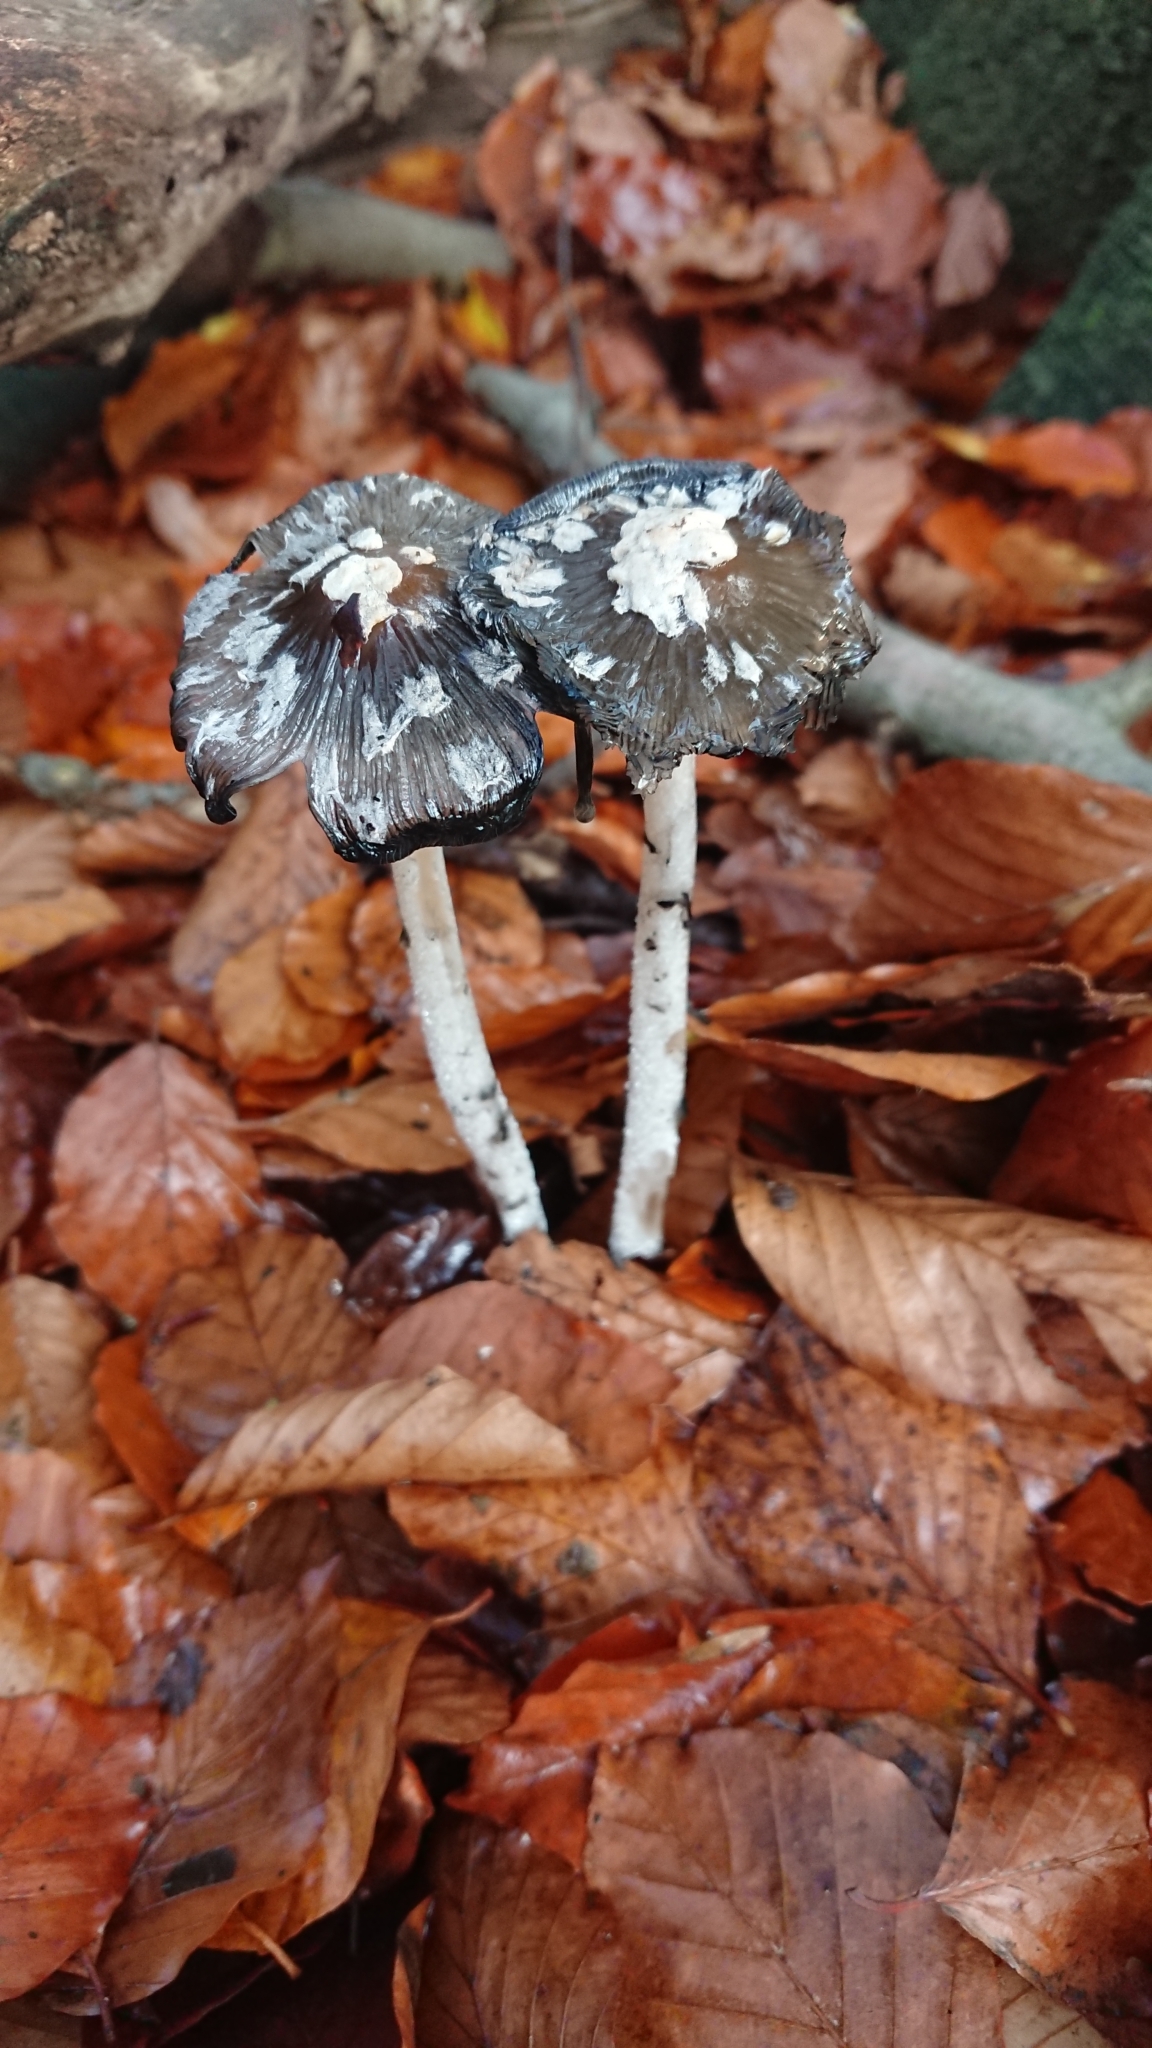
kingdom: Fungi
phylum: Basidiomycota
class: Agaricomycetes
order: Agaricales
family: Psathyrellaceae
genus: Coprinopsis
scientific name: Coprinopsis picacea
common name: Magpie inkcap
